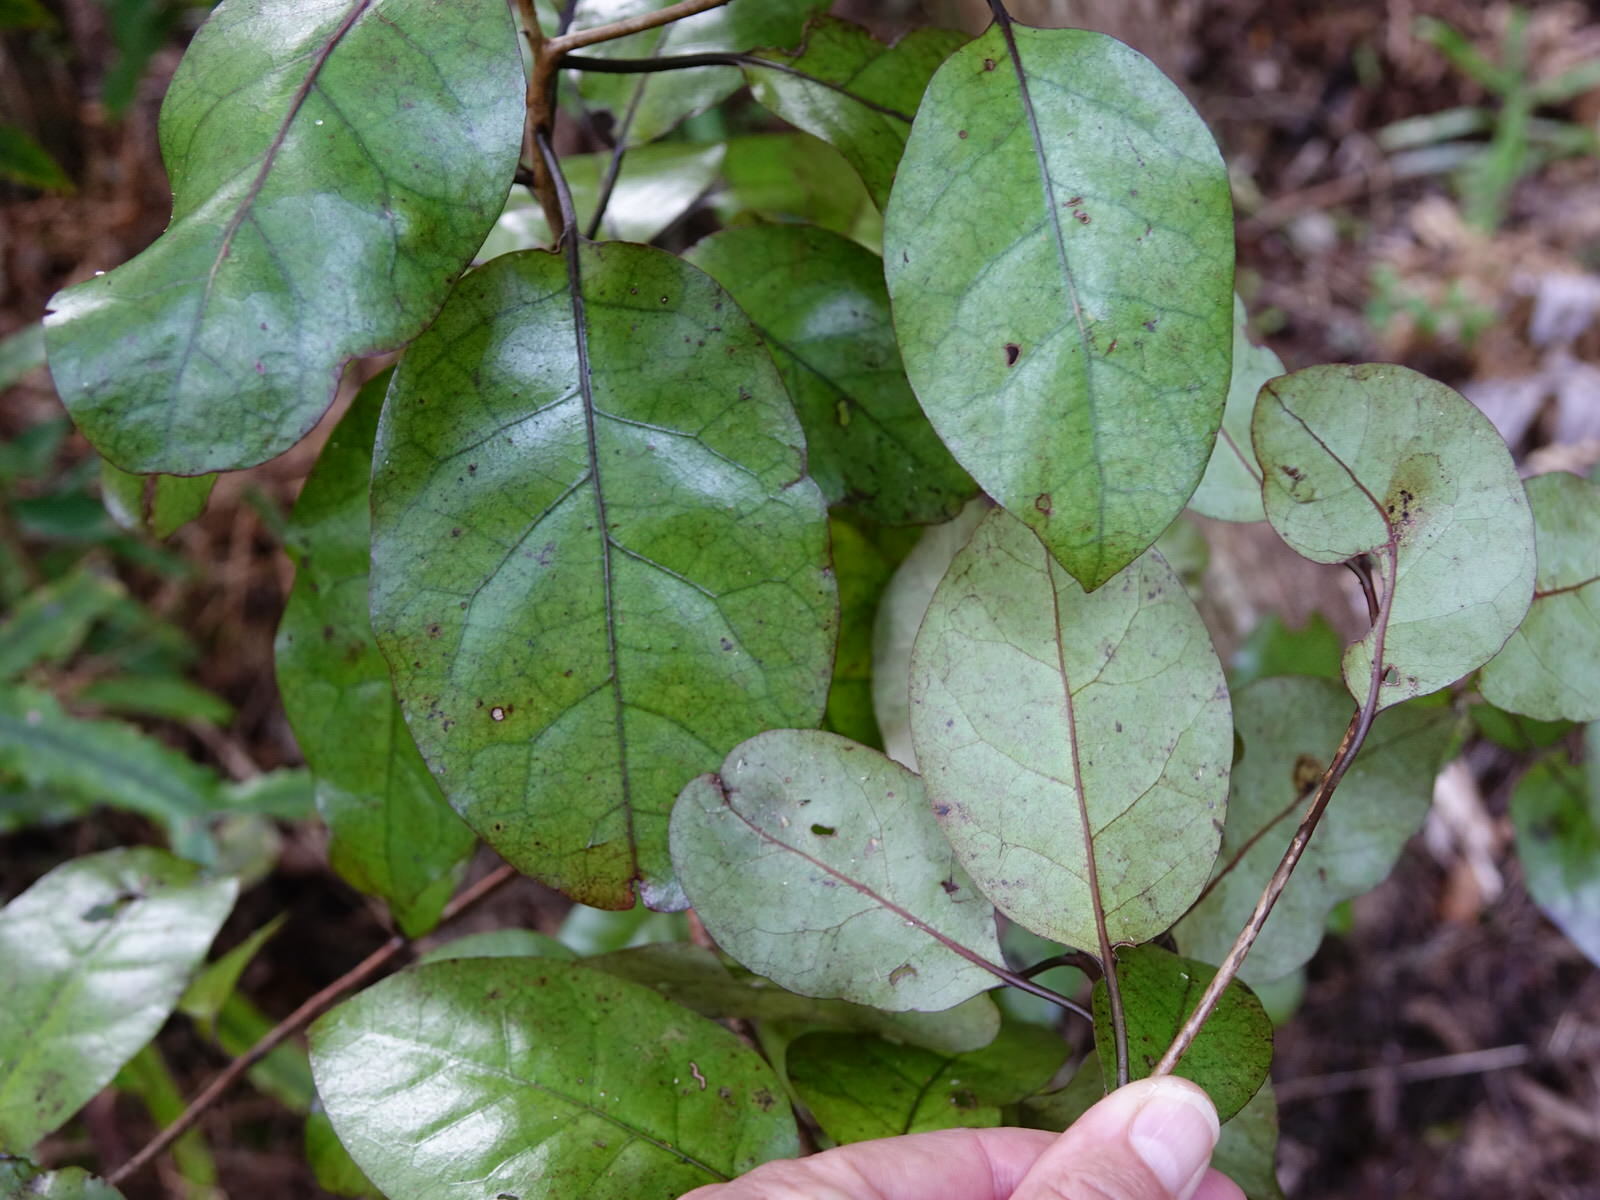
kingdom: Plantae
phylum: Tracheophyta
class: Magnoliopsida
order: Laurales
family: Lauraceae
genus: Litsea
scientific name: Litsea calicaris
